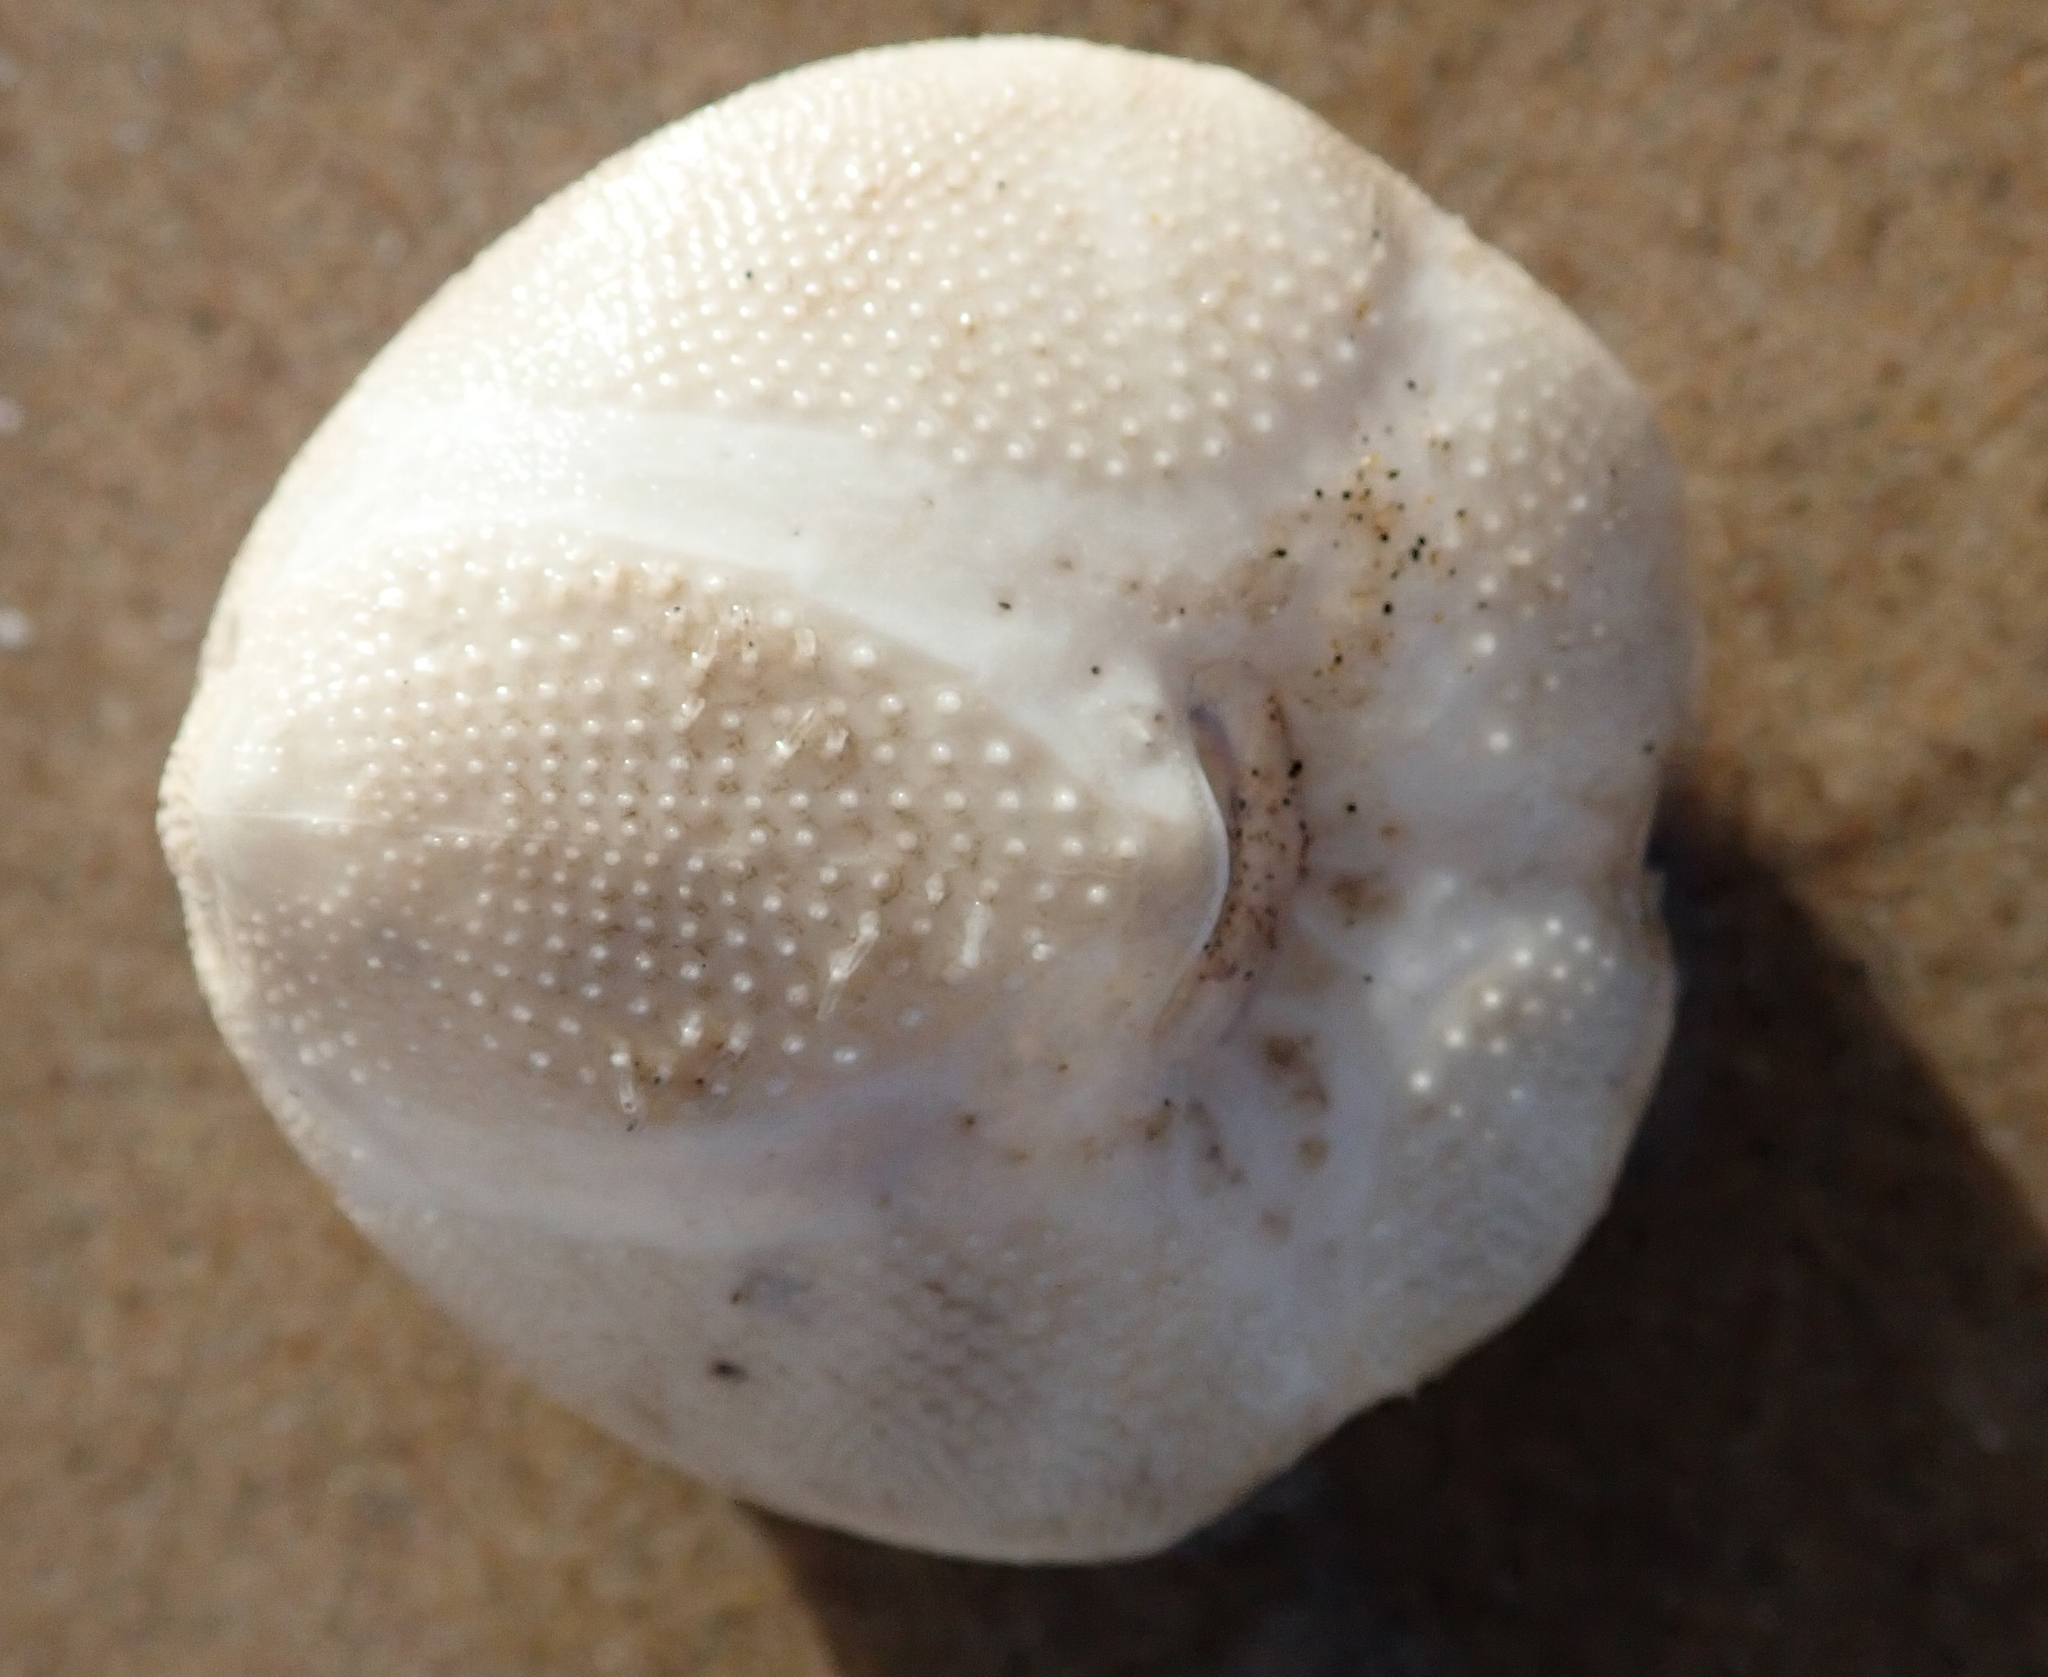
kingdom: Animalia
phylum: Echinodermata
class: Echinoidea
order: Spatangoida
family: Loveniidae
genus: Echinocardium
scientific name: Echinocardium cordatum
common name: Heart-urchin
